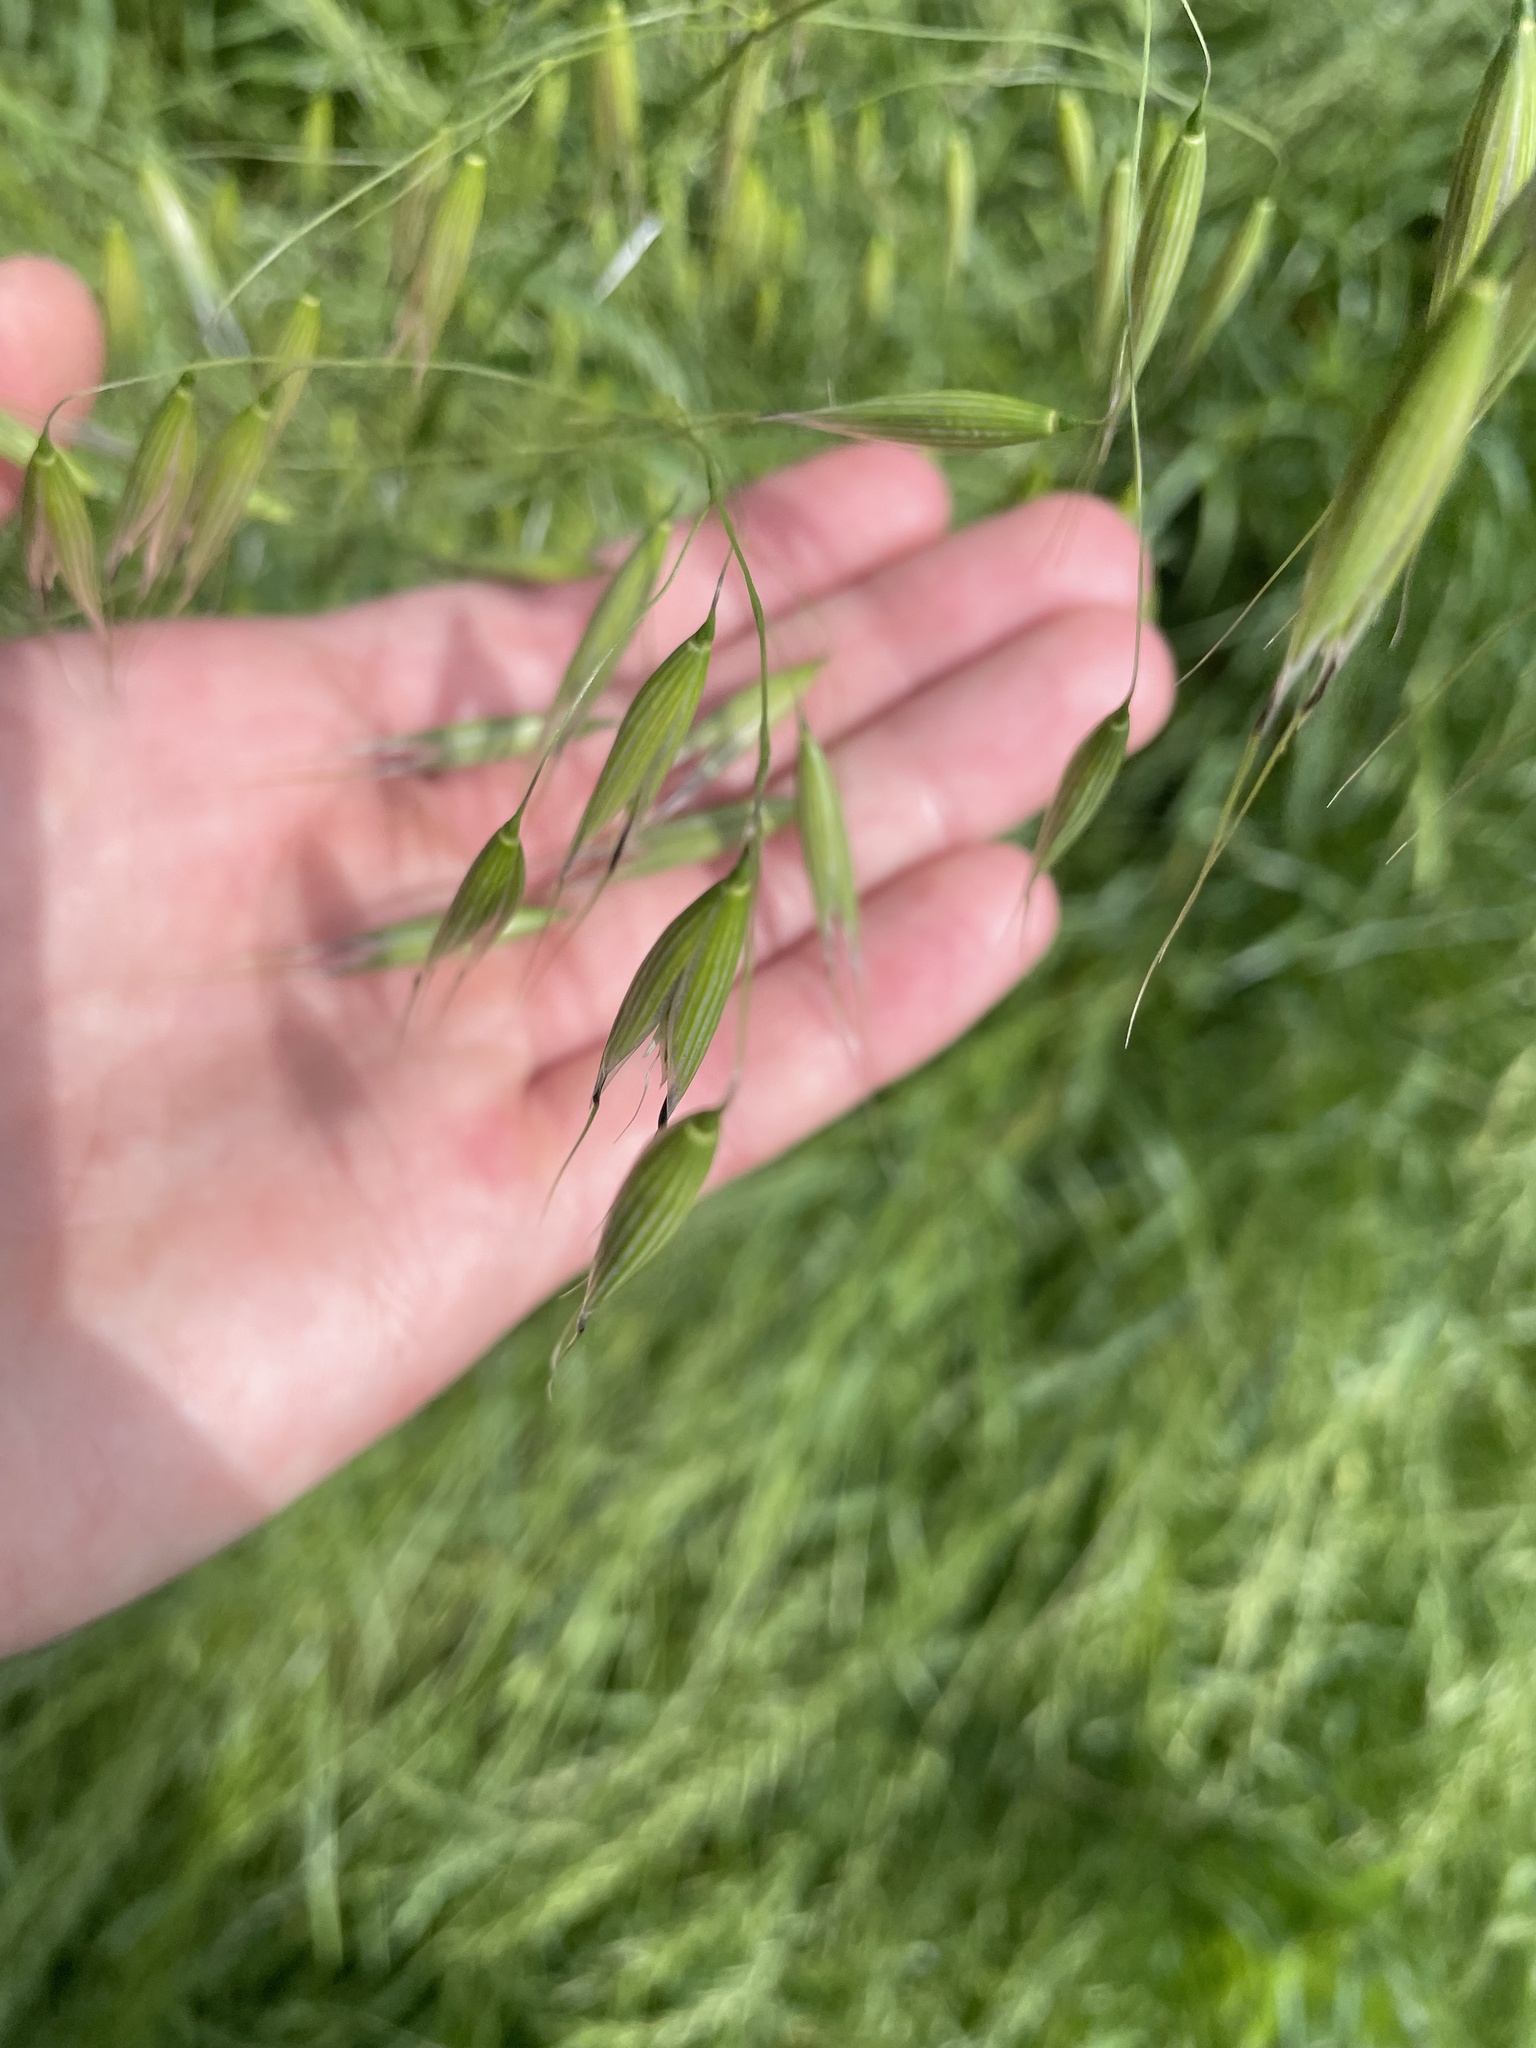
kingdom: Plantae
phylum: Tracheophyta
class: Liliopsida
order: Poales
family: Poaceae
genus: Avena
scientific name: Avena fatua
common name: Wild oat
